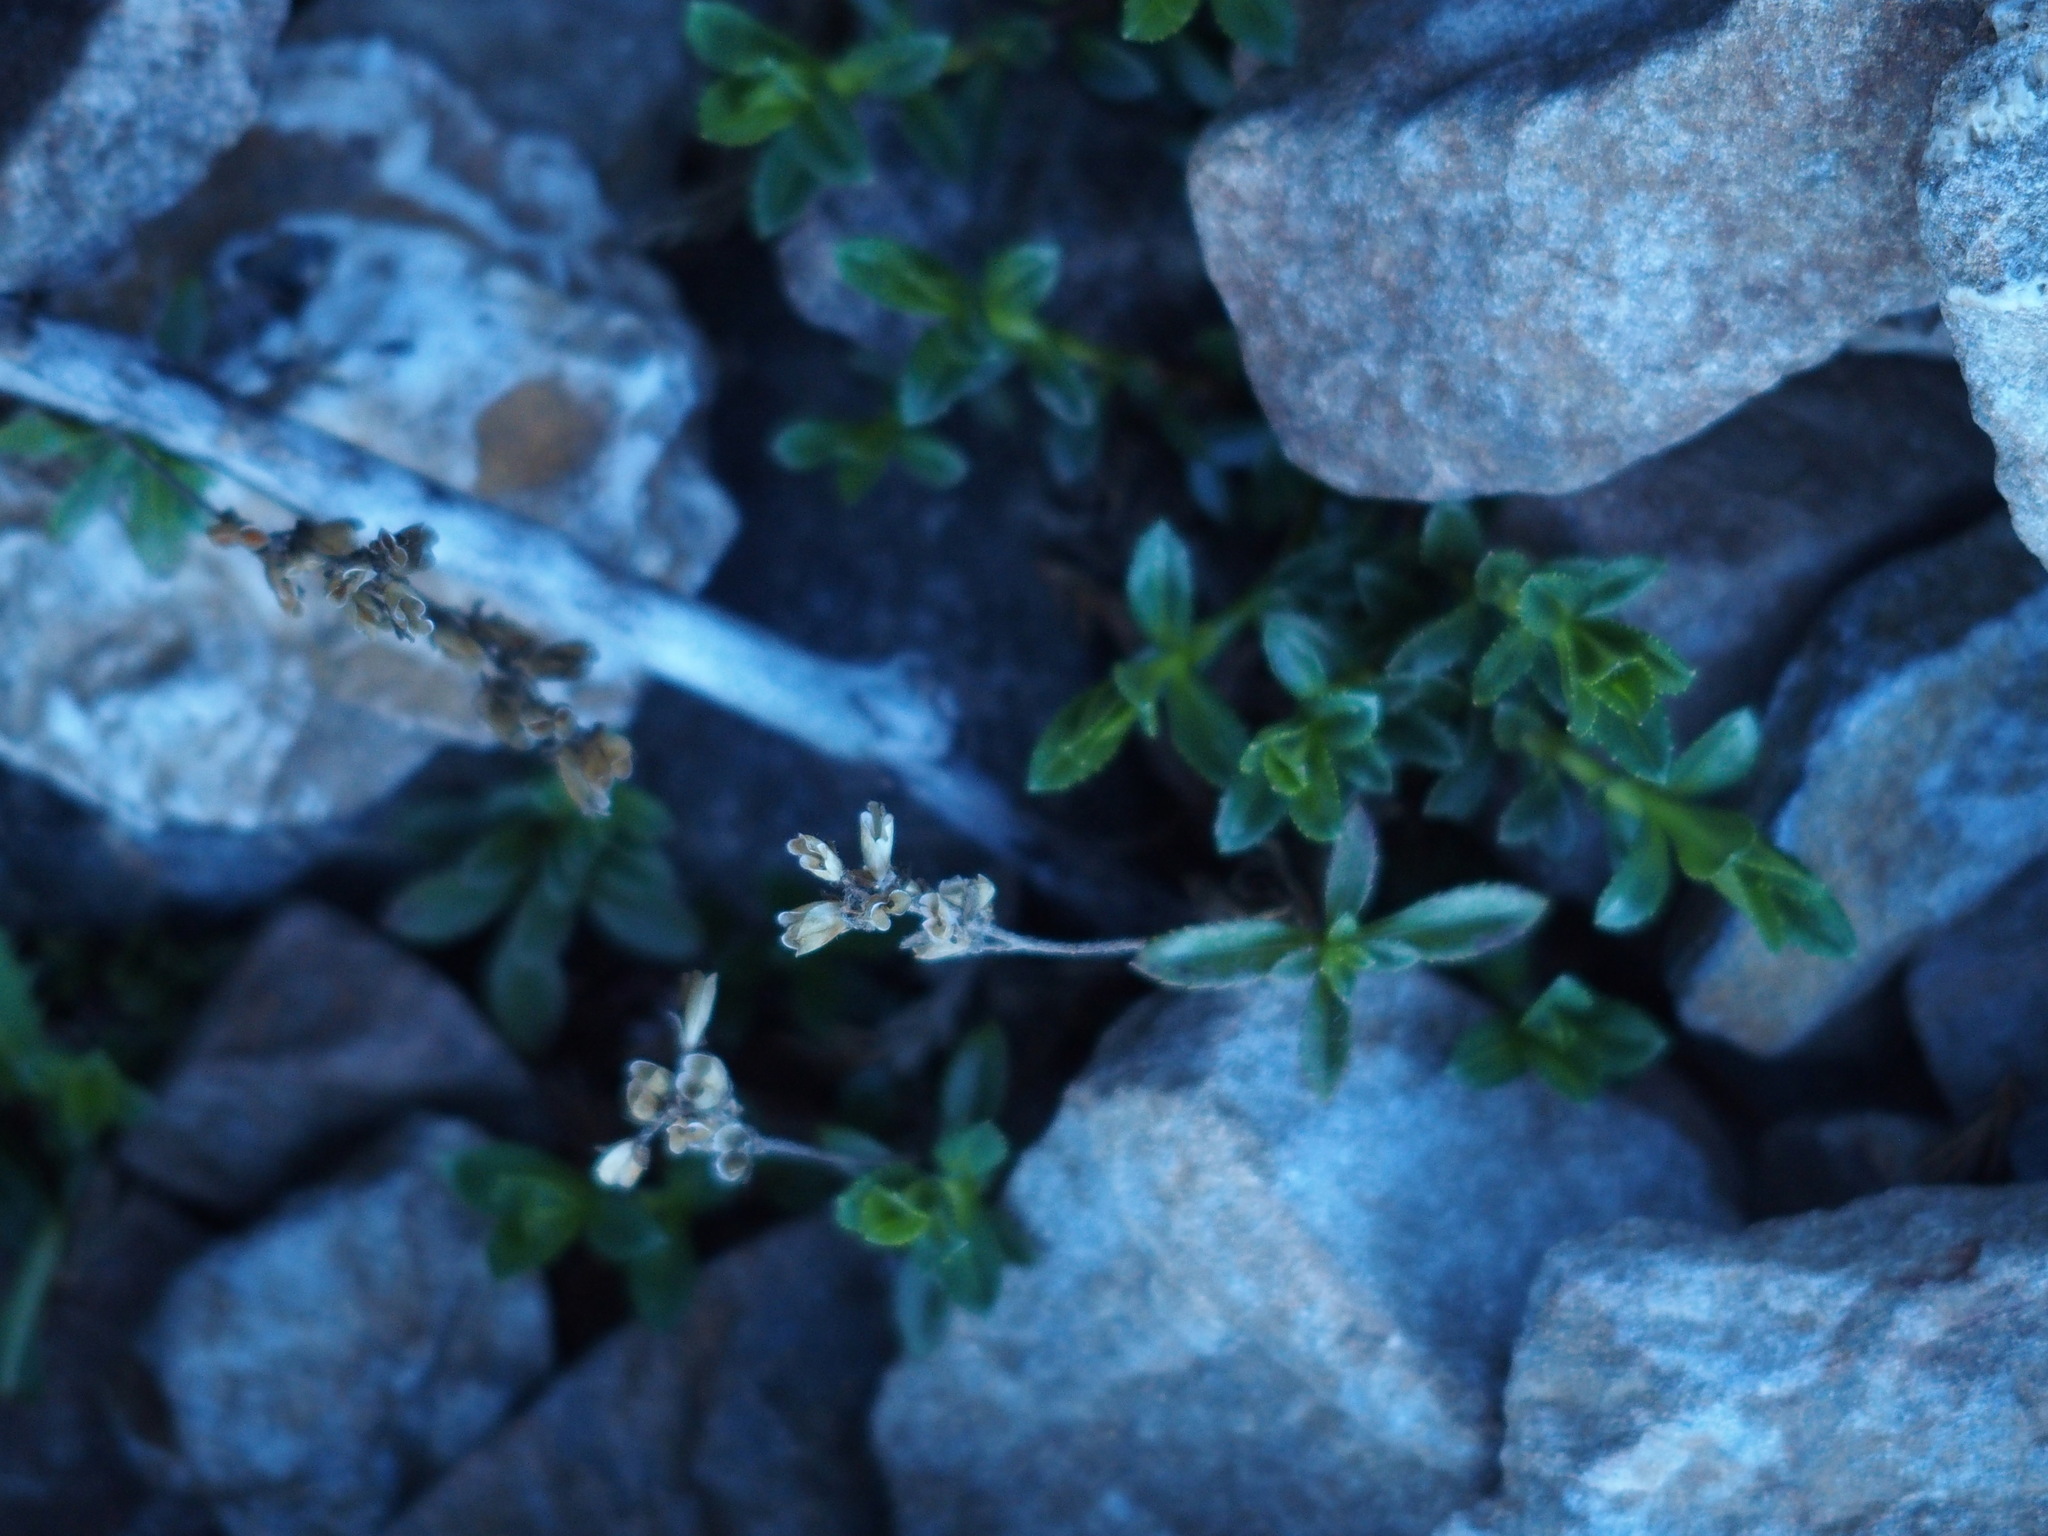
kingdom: Plantae
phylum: Tracheophyta
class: Magnoliopsida
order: Lamiales
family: Plantaginaceae
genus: Veronica
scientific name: Veronica morrisonicola
